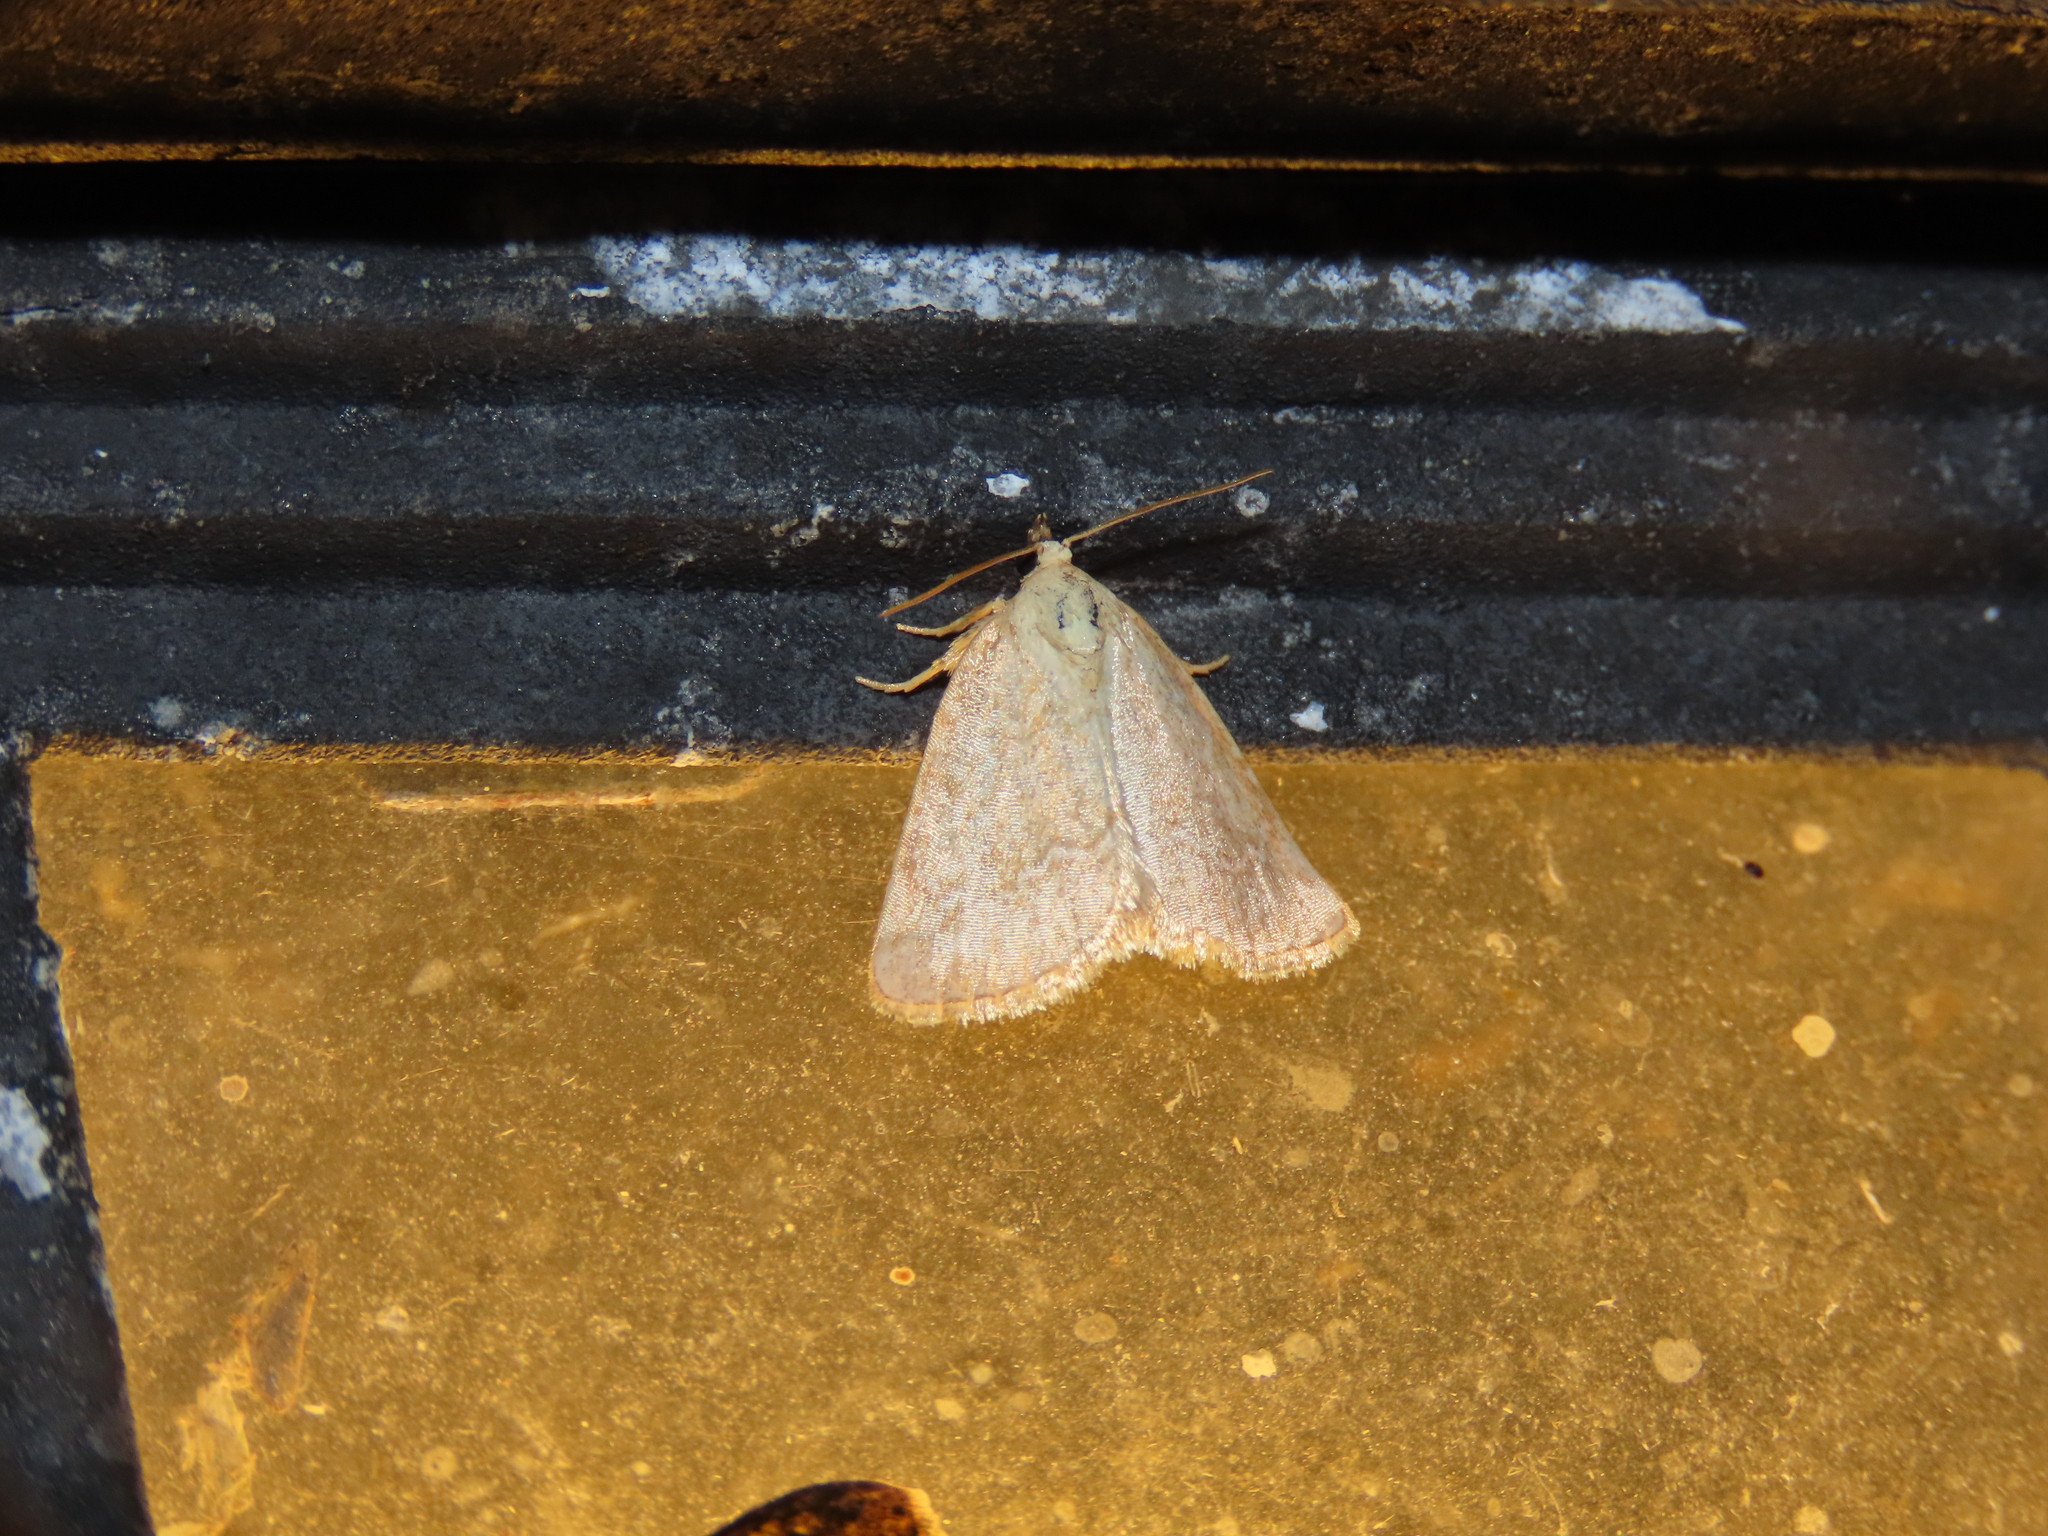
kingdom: Animalia
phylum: Arthropoda
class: Insecta
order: Lepidoptera
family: Noctuidae
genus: Protodeltote
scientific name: Protodeltote albidula
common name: Pale glyph
